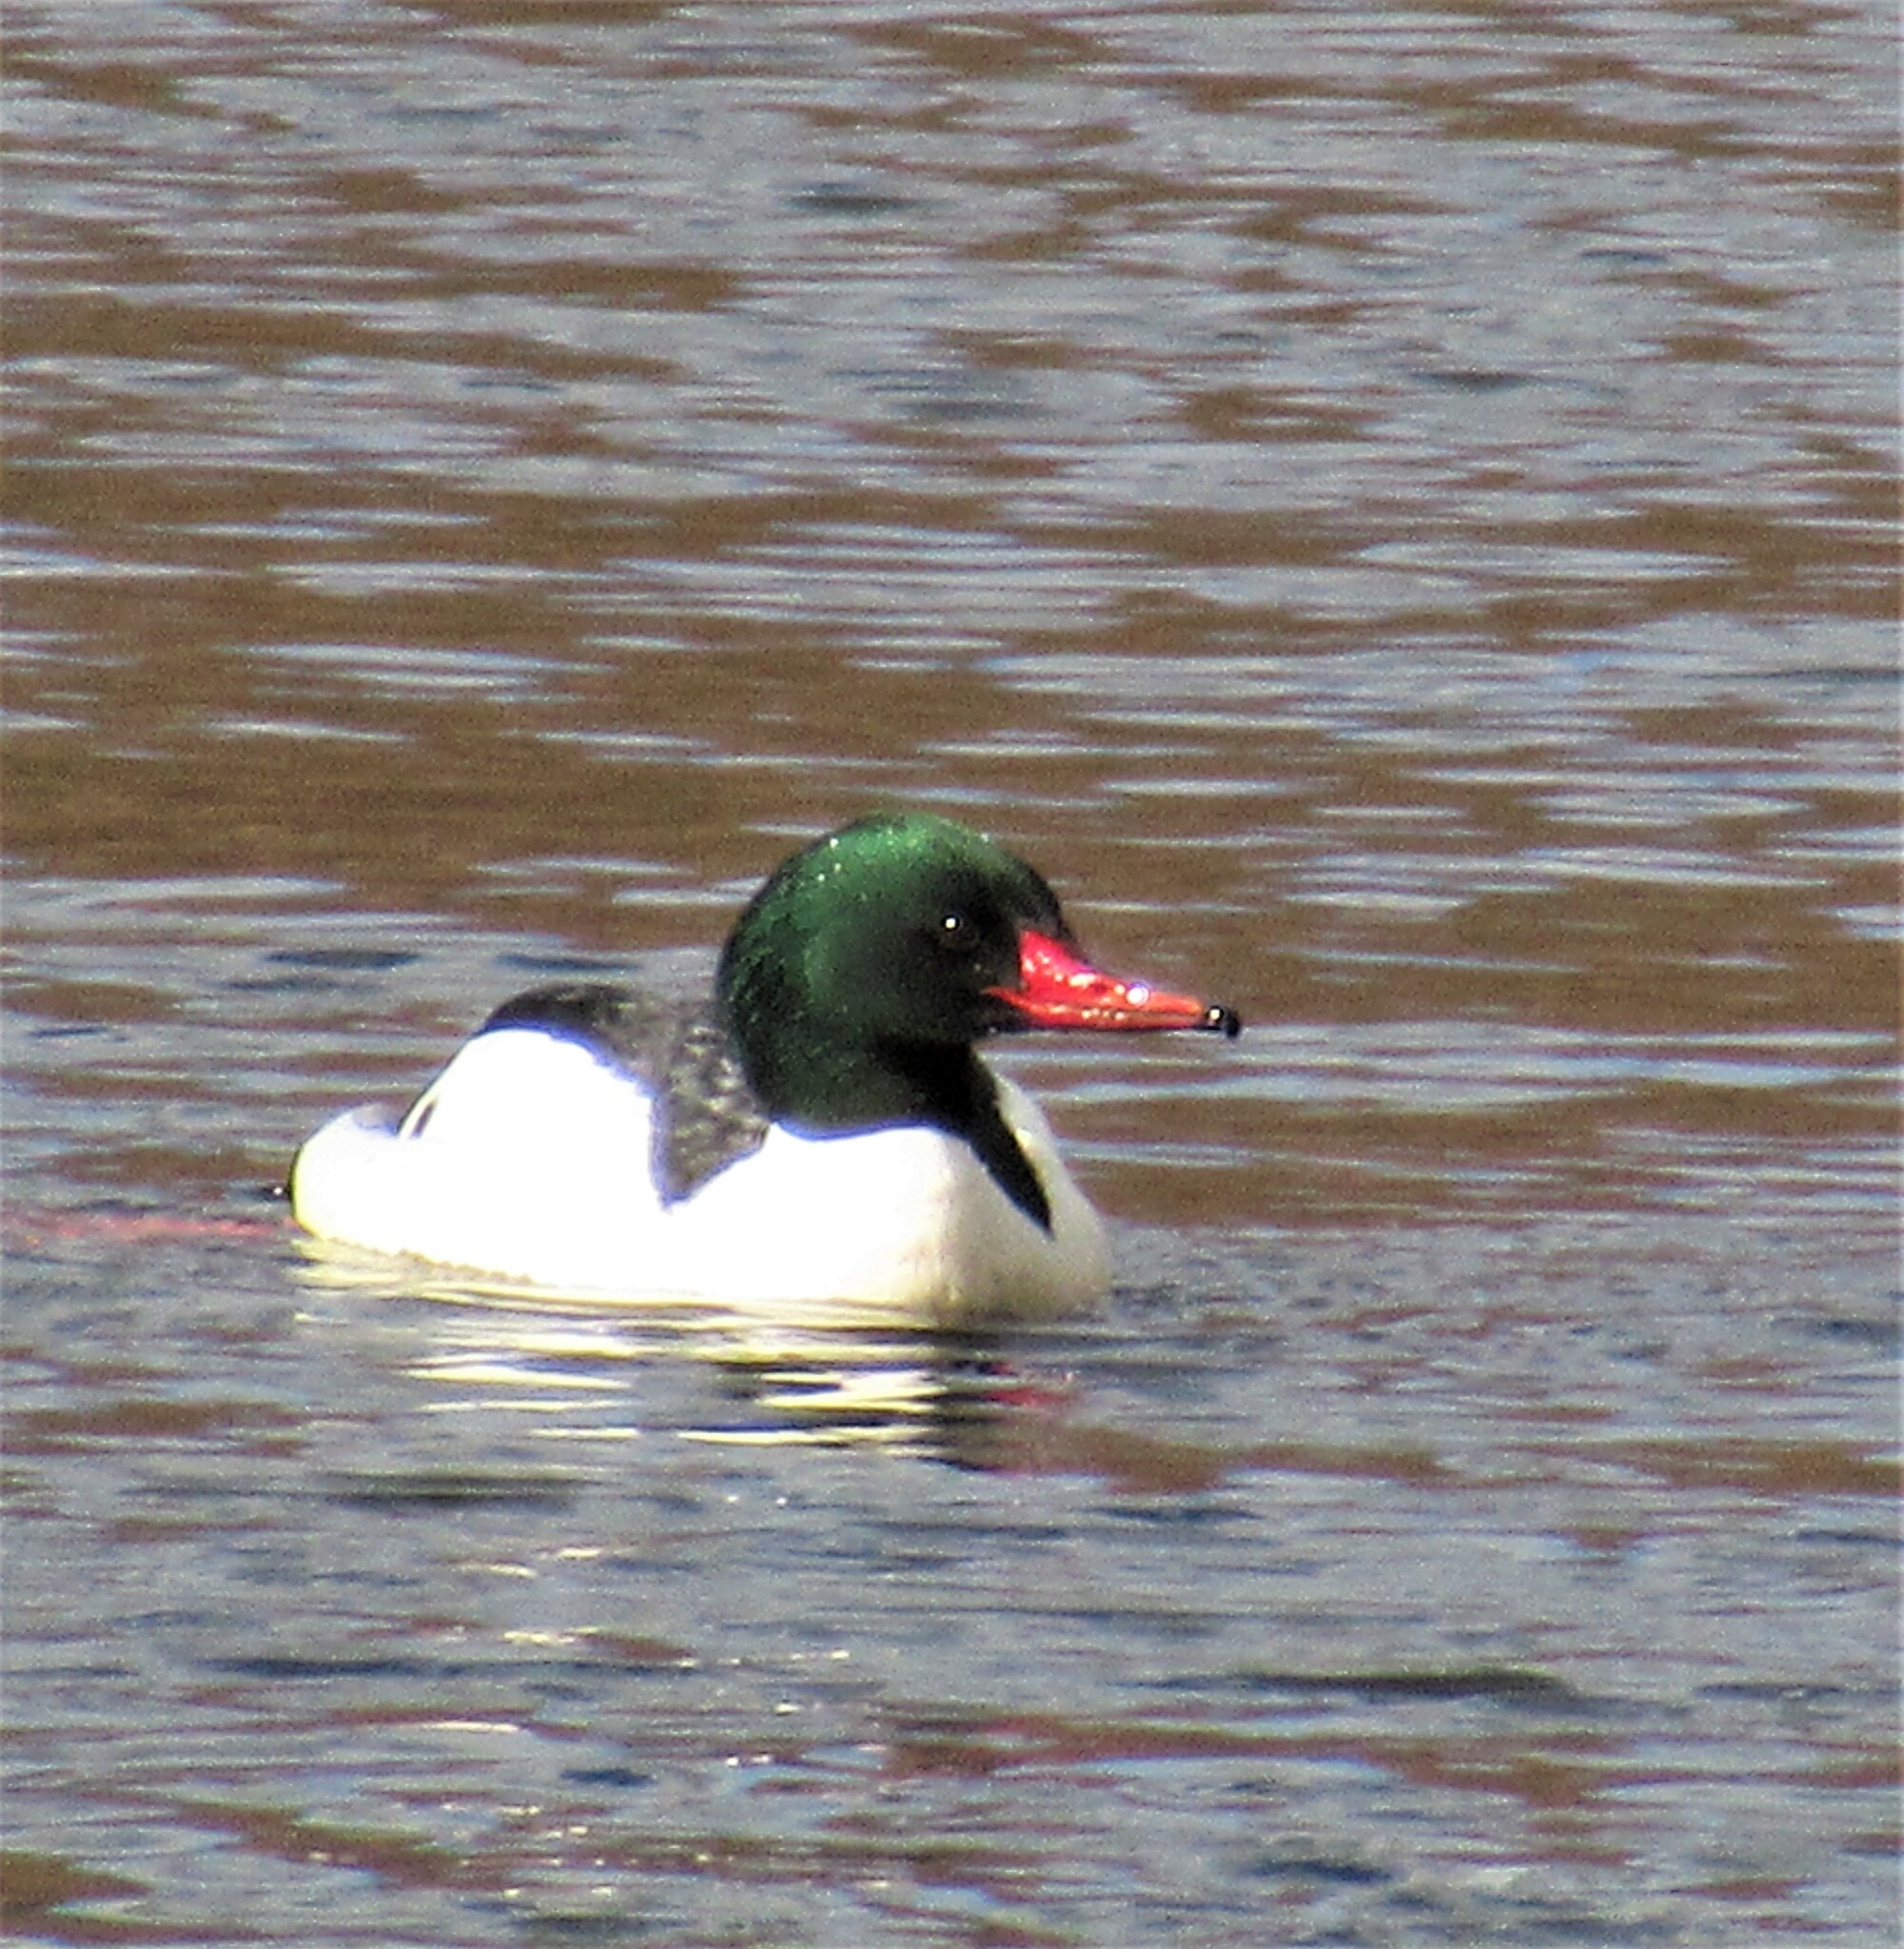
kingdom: Animalia
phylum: Chordata
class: Aves
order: Anseriformes
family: Anatidae
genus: Mergus
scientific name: Mergus merganser
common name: Common merganser
